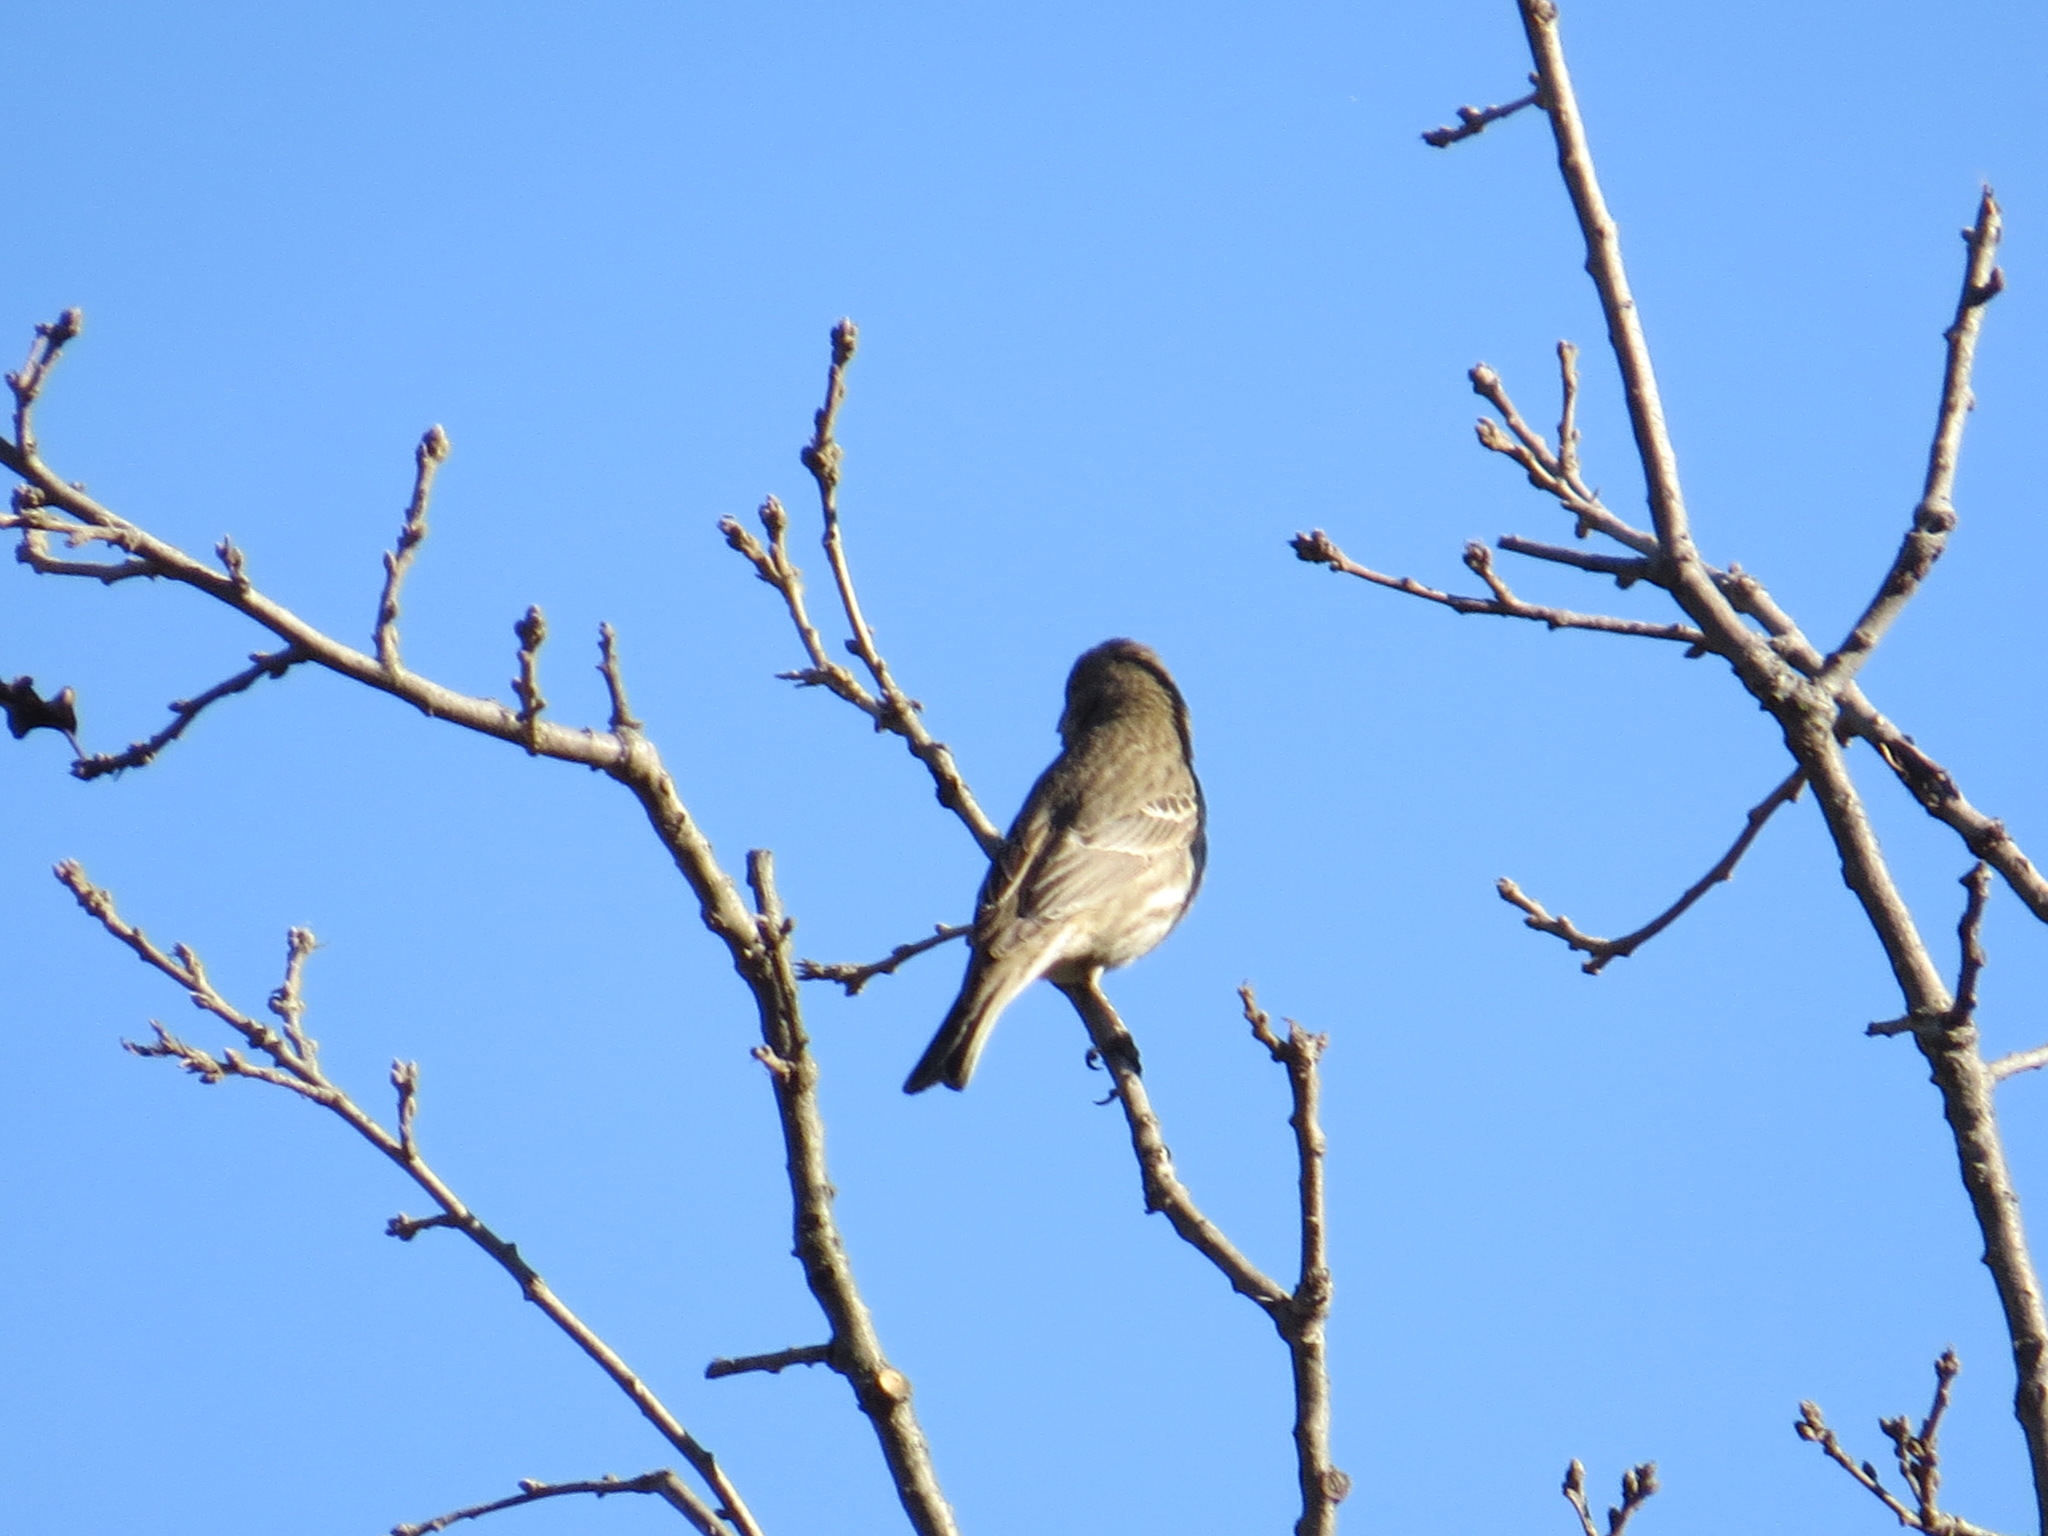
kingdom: Animalia
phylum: Chordata
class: Aves
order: Passeriformes
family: Fringillidae
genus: Haemorhous
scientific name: Haemorhous mexicanus
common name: House finch
